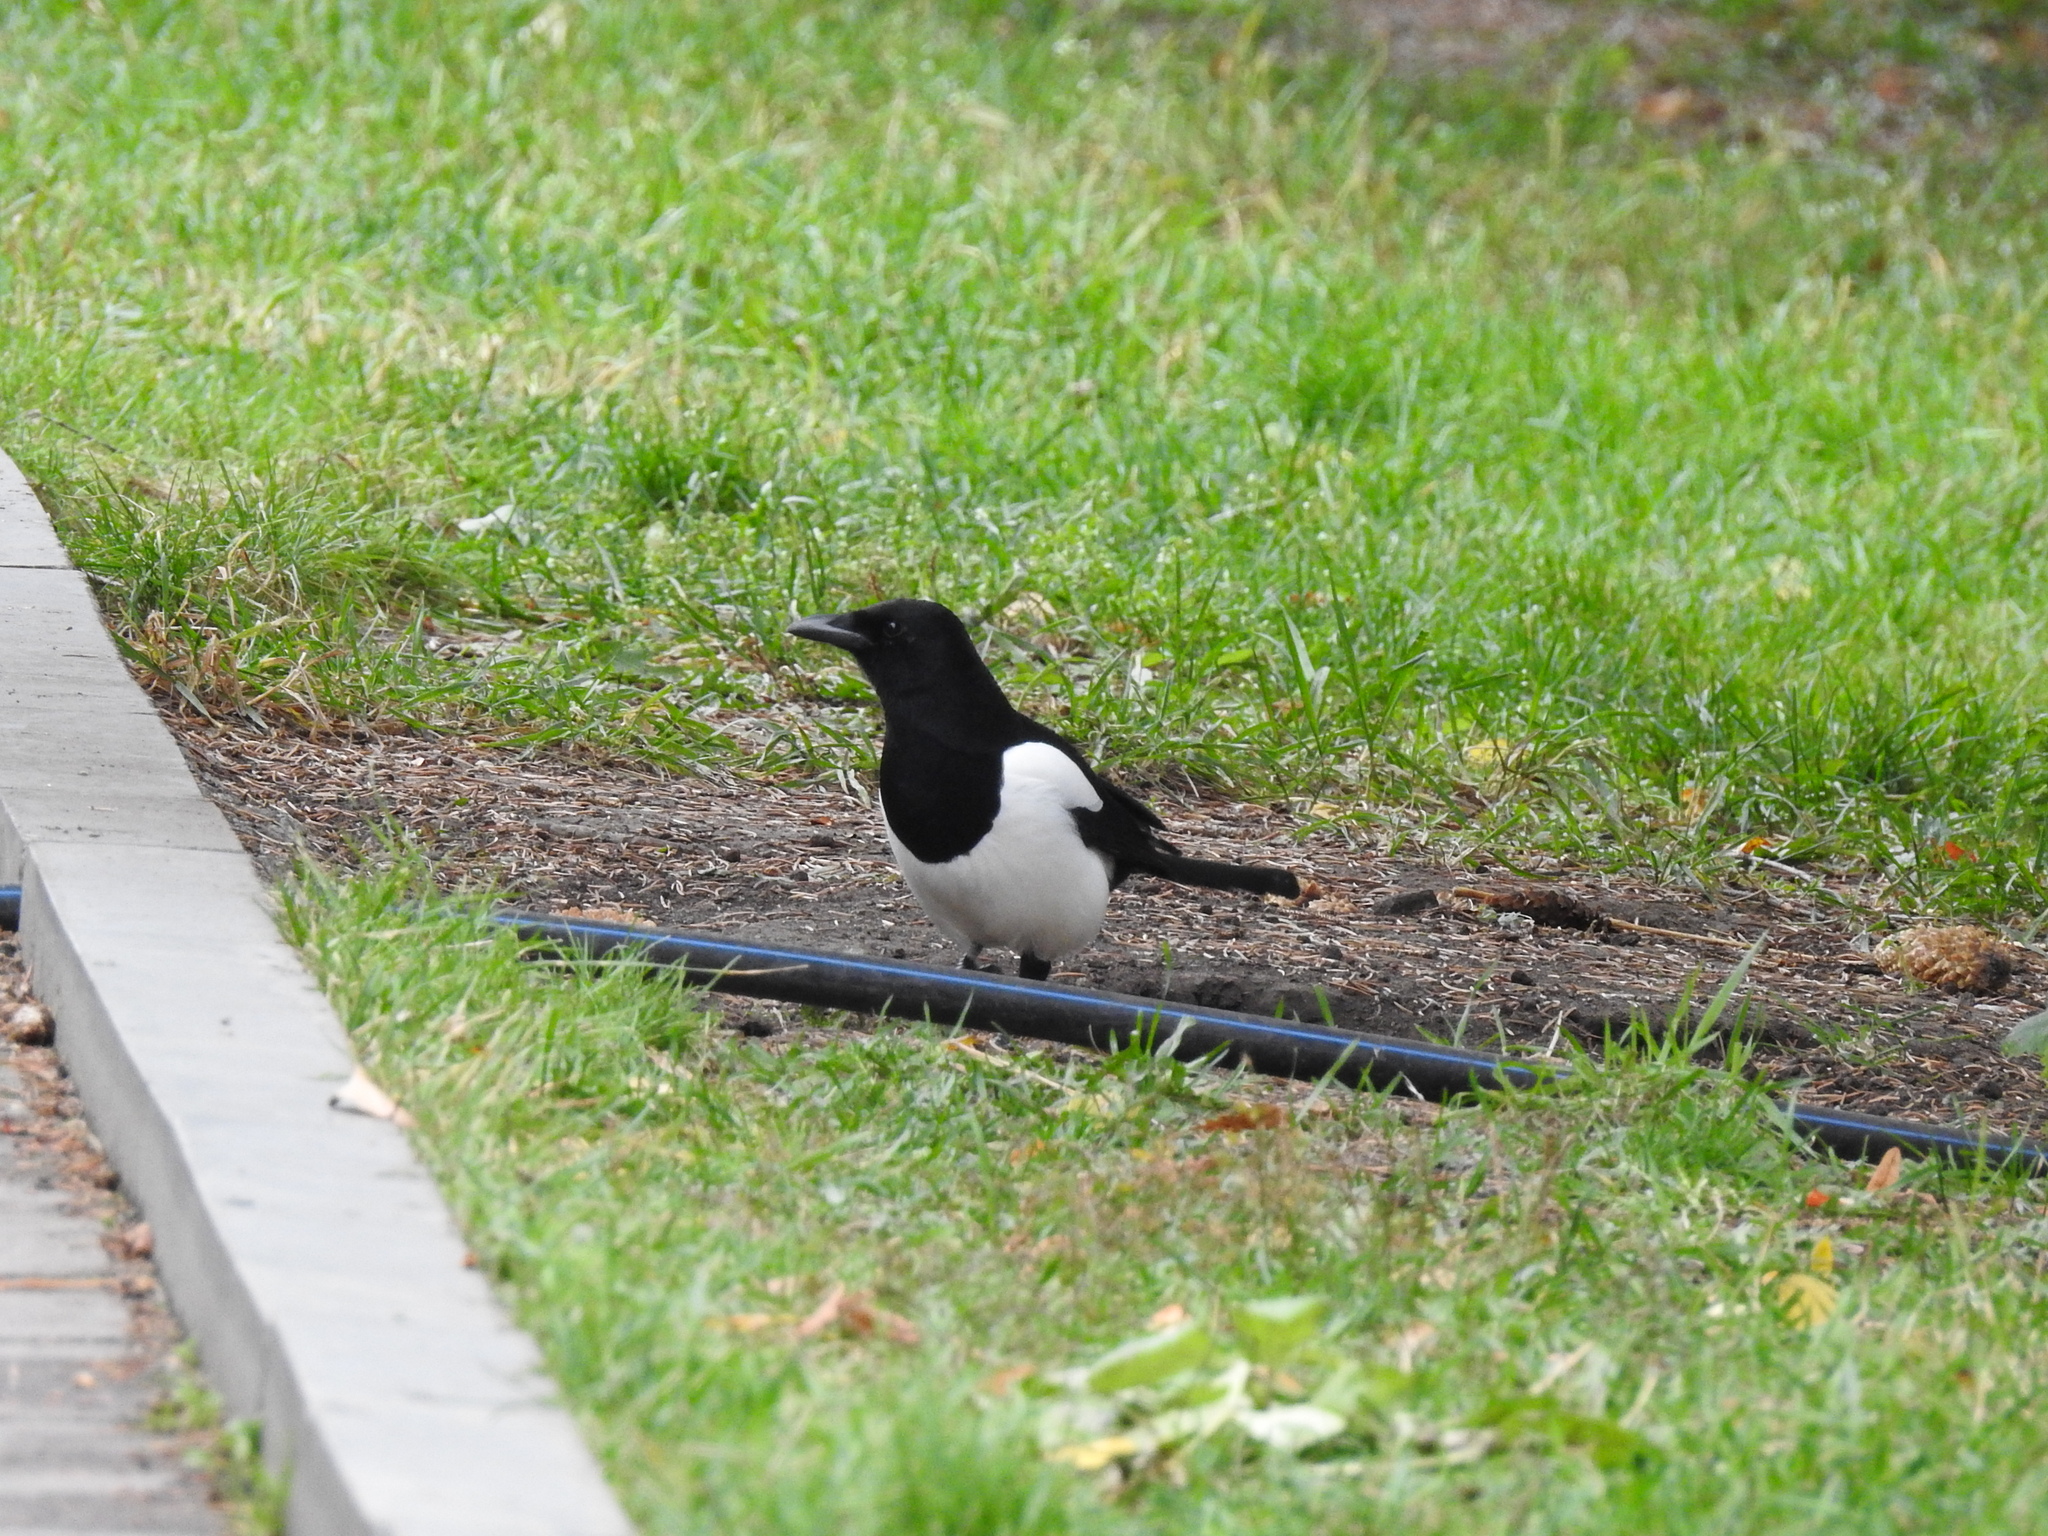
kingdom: Animalia
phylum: Chordata
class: Aves
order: Passeriformes
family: Corvidae
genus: Pica
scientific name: Pica pica
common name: Eurasian magpie
